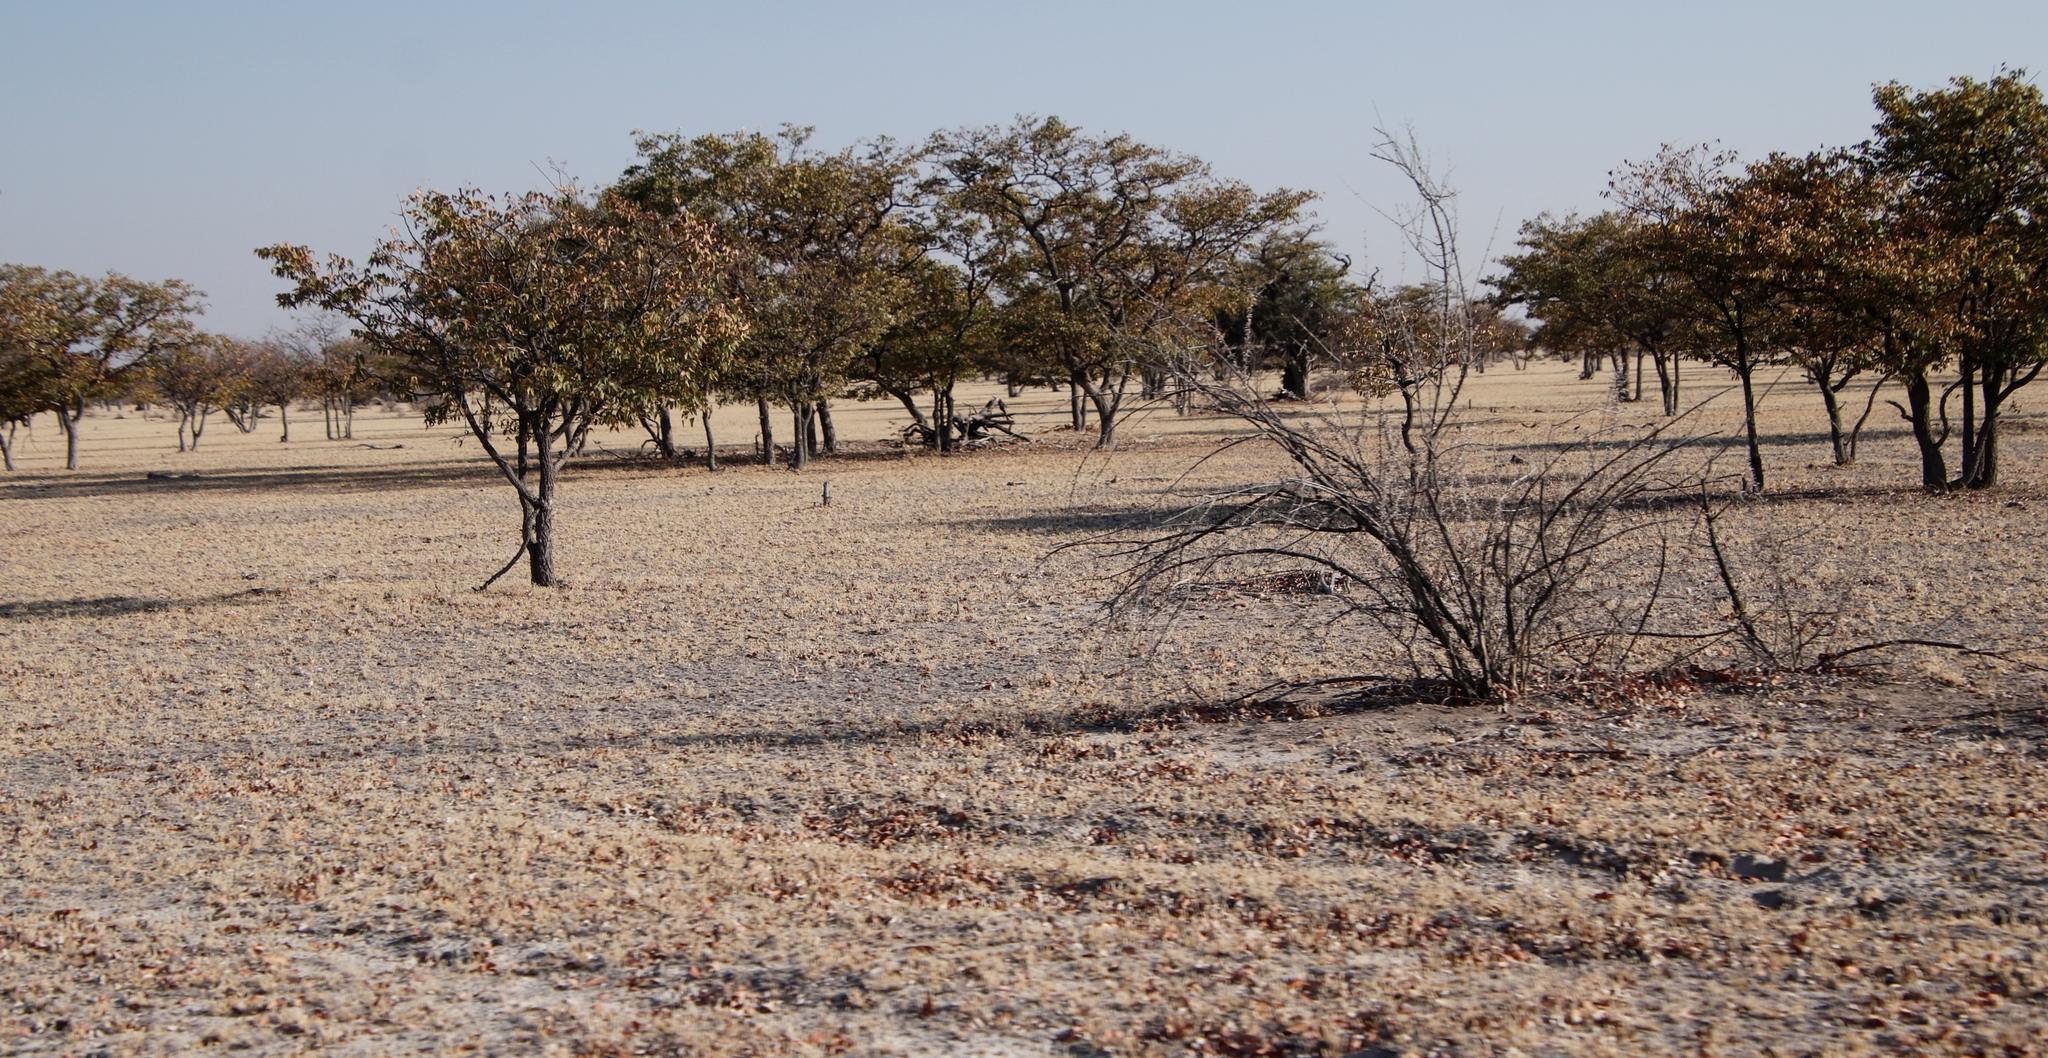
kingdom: Plantae
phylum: Tracheophyta
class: Magnoliopsida
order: Fabales
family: Fabaceae
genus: Colophospermum
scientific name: Colophospermum mopane
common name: Mopane
